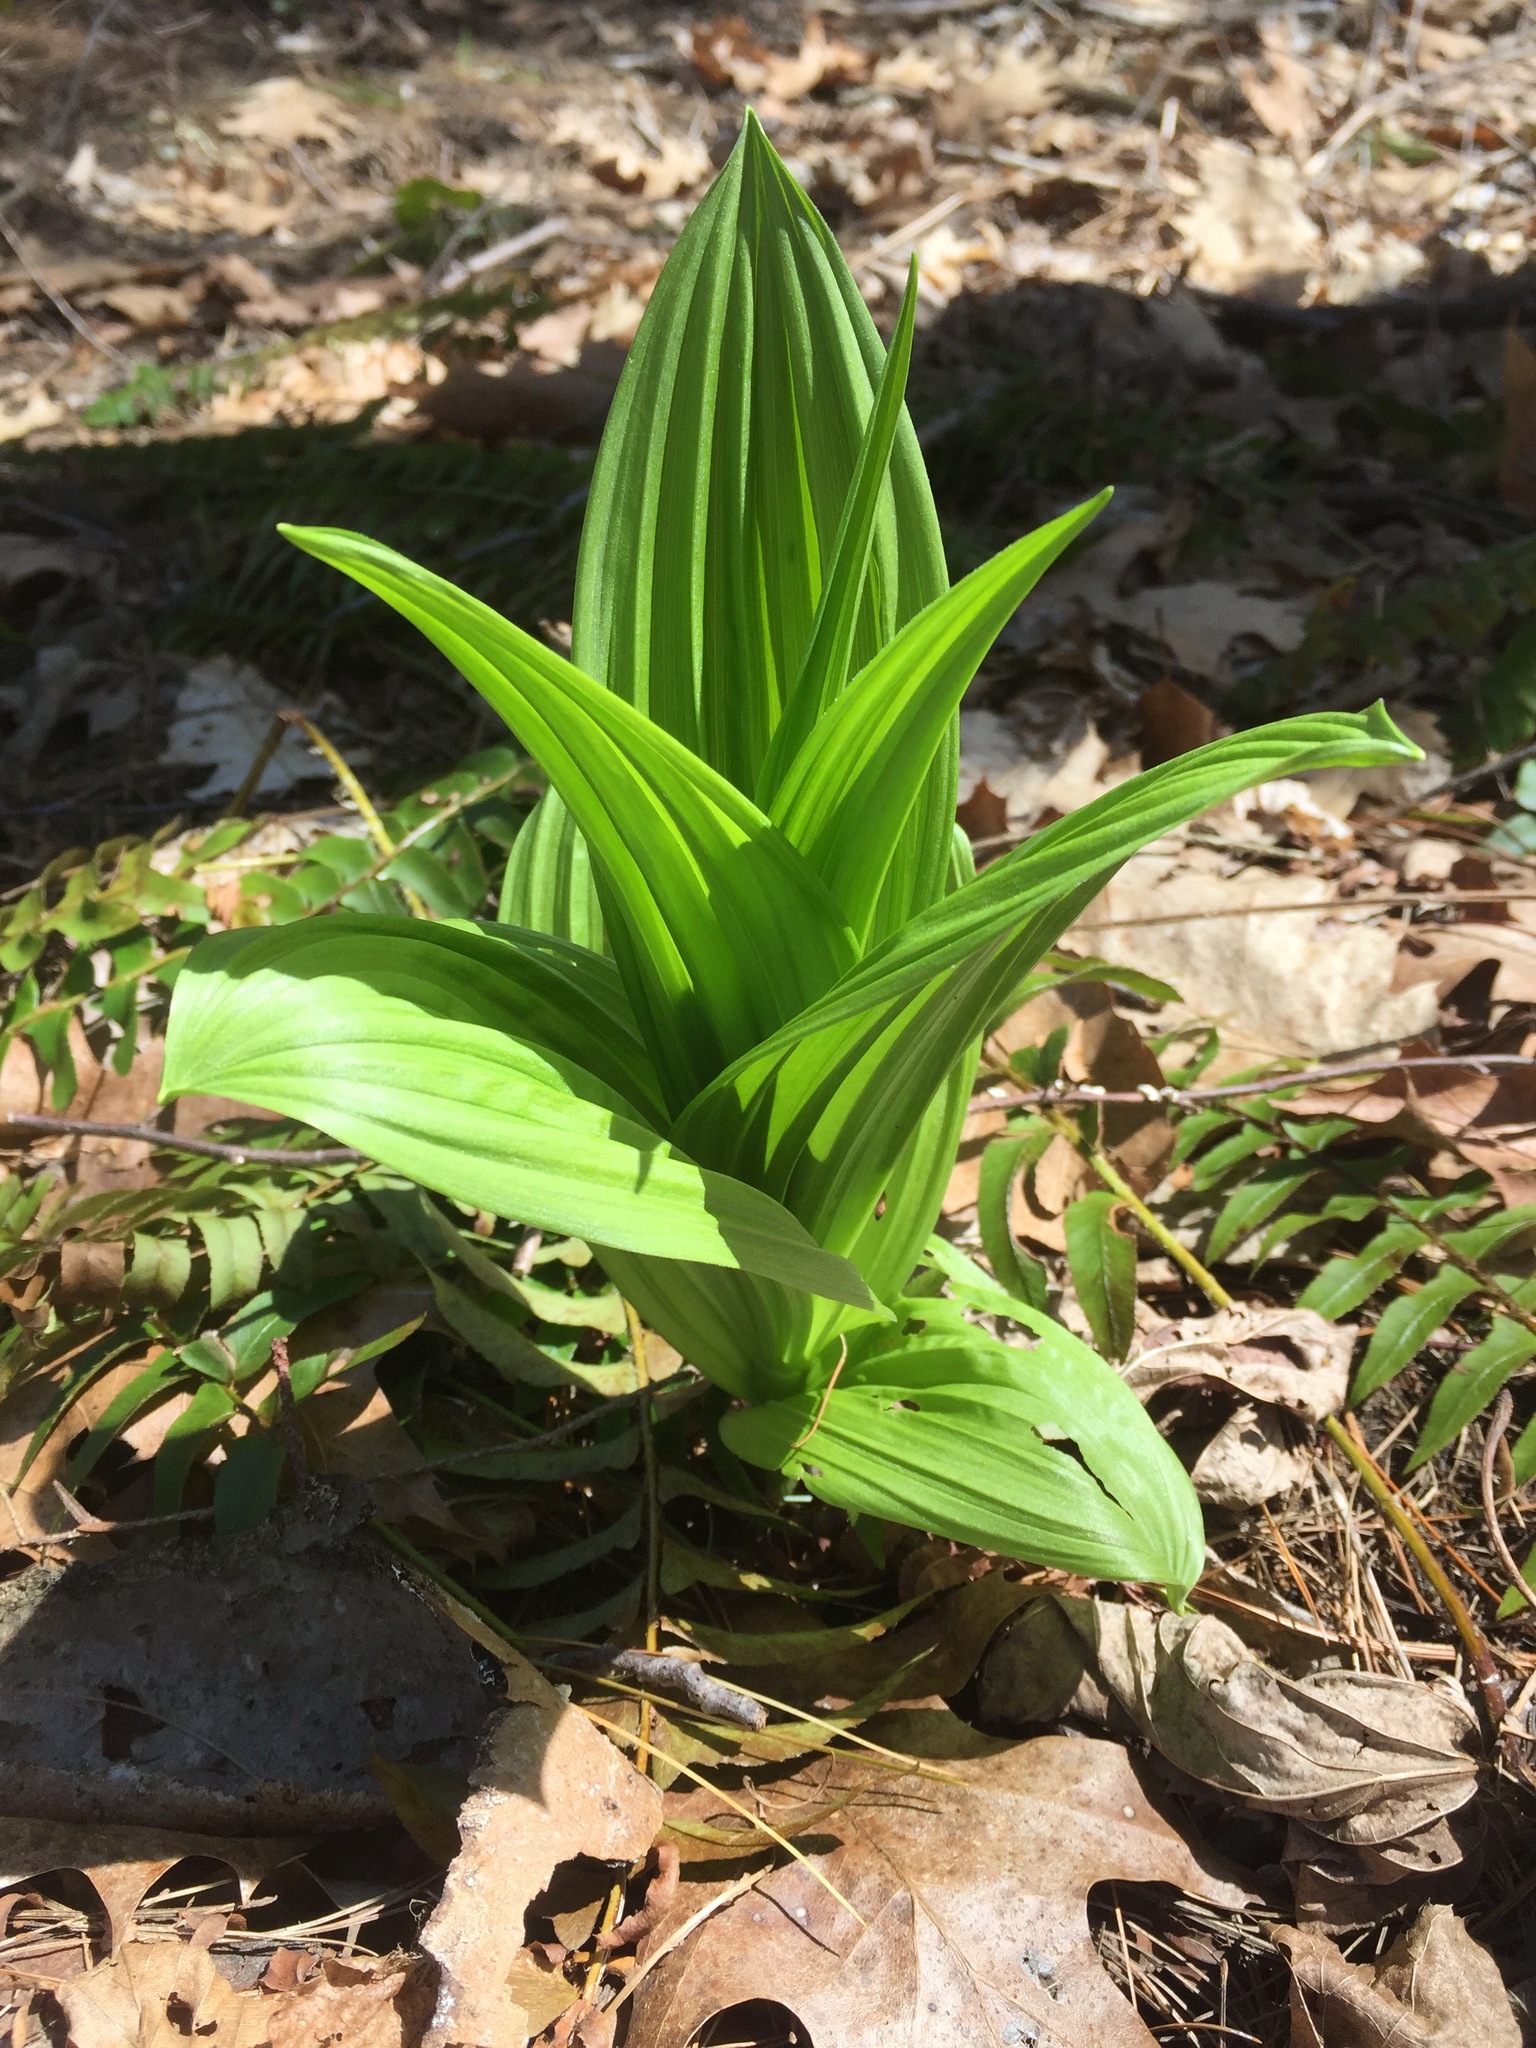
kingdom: Plantae
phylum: Tracheophyta
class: Liliopsida
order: Liliales
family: Melanthiaceae
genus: Veratrum
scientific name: Veratrum viride
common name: American false hellebore
